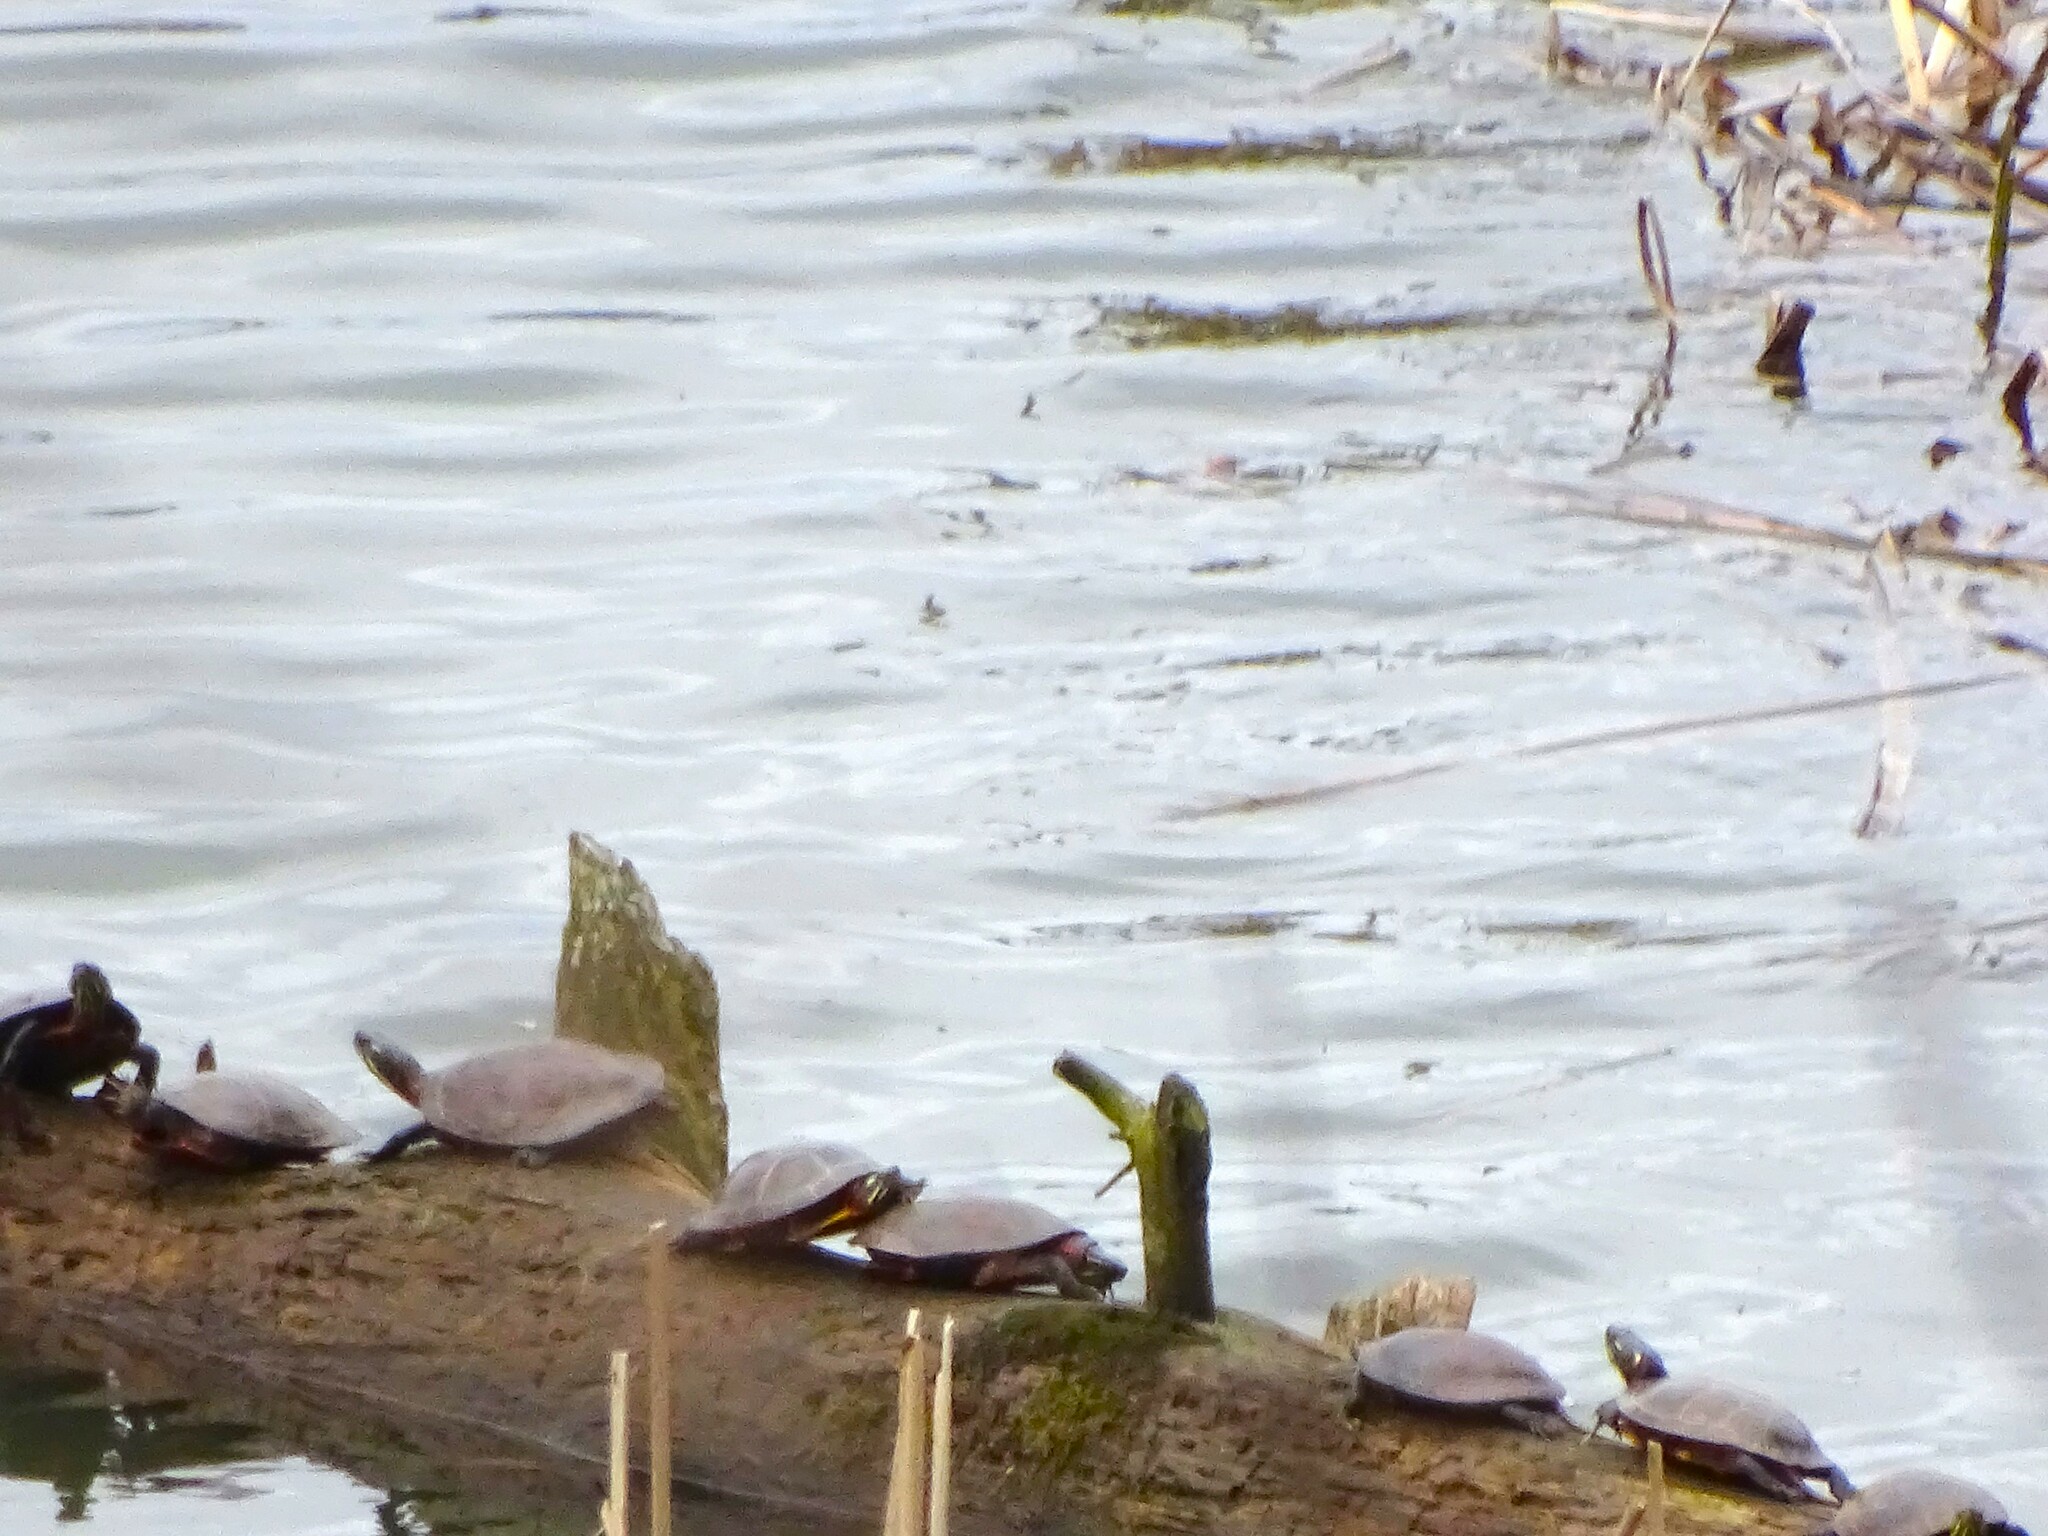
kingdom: Animalia
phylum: Chordata
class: Testudines
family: Emydidae
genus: Chrysemys
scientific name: Chrysemys picta
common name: Painted turtle
